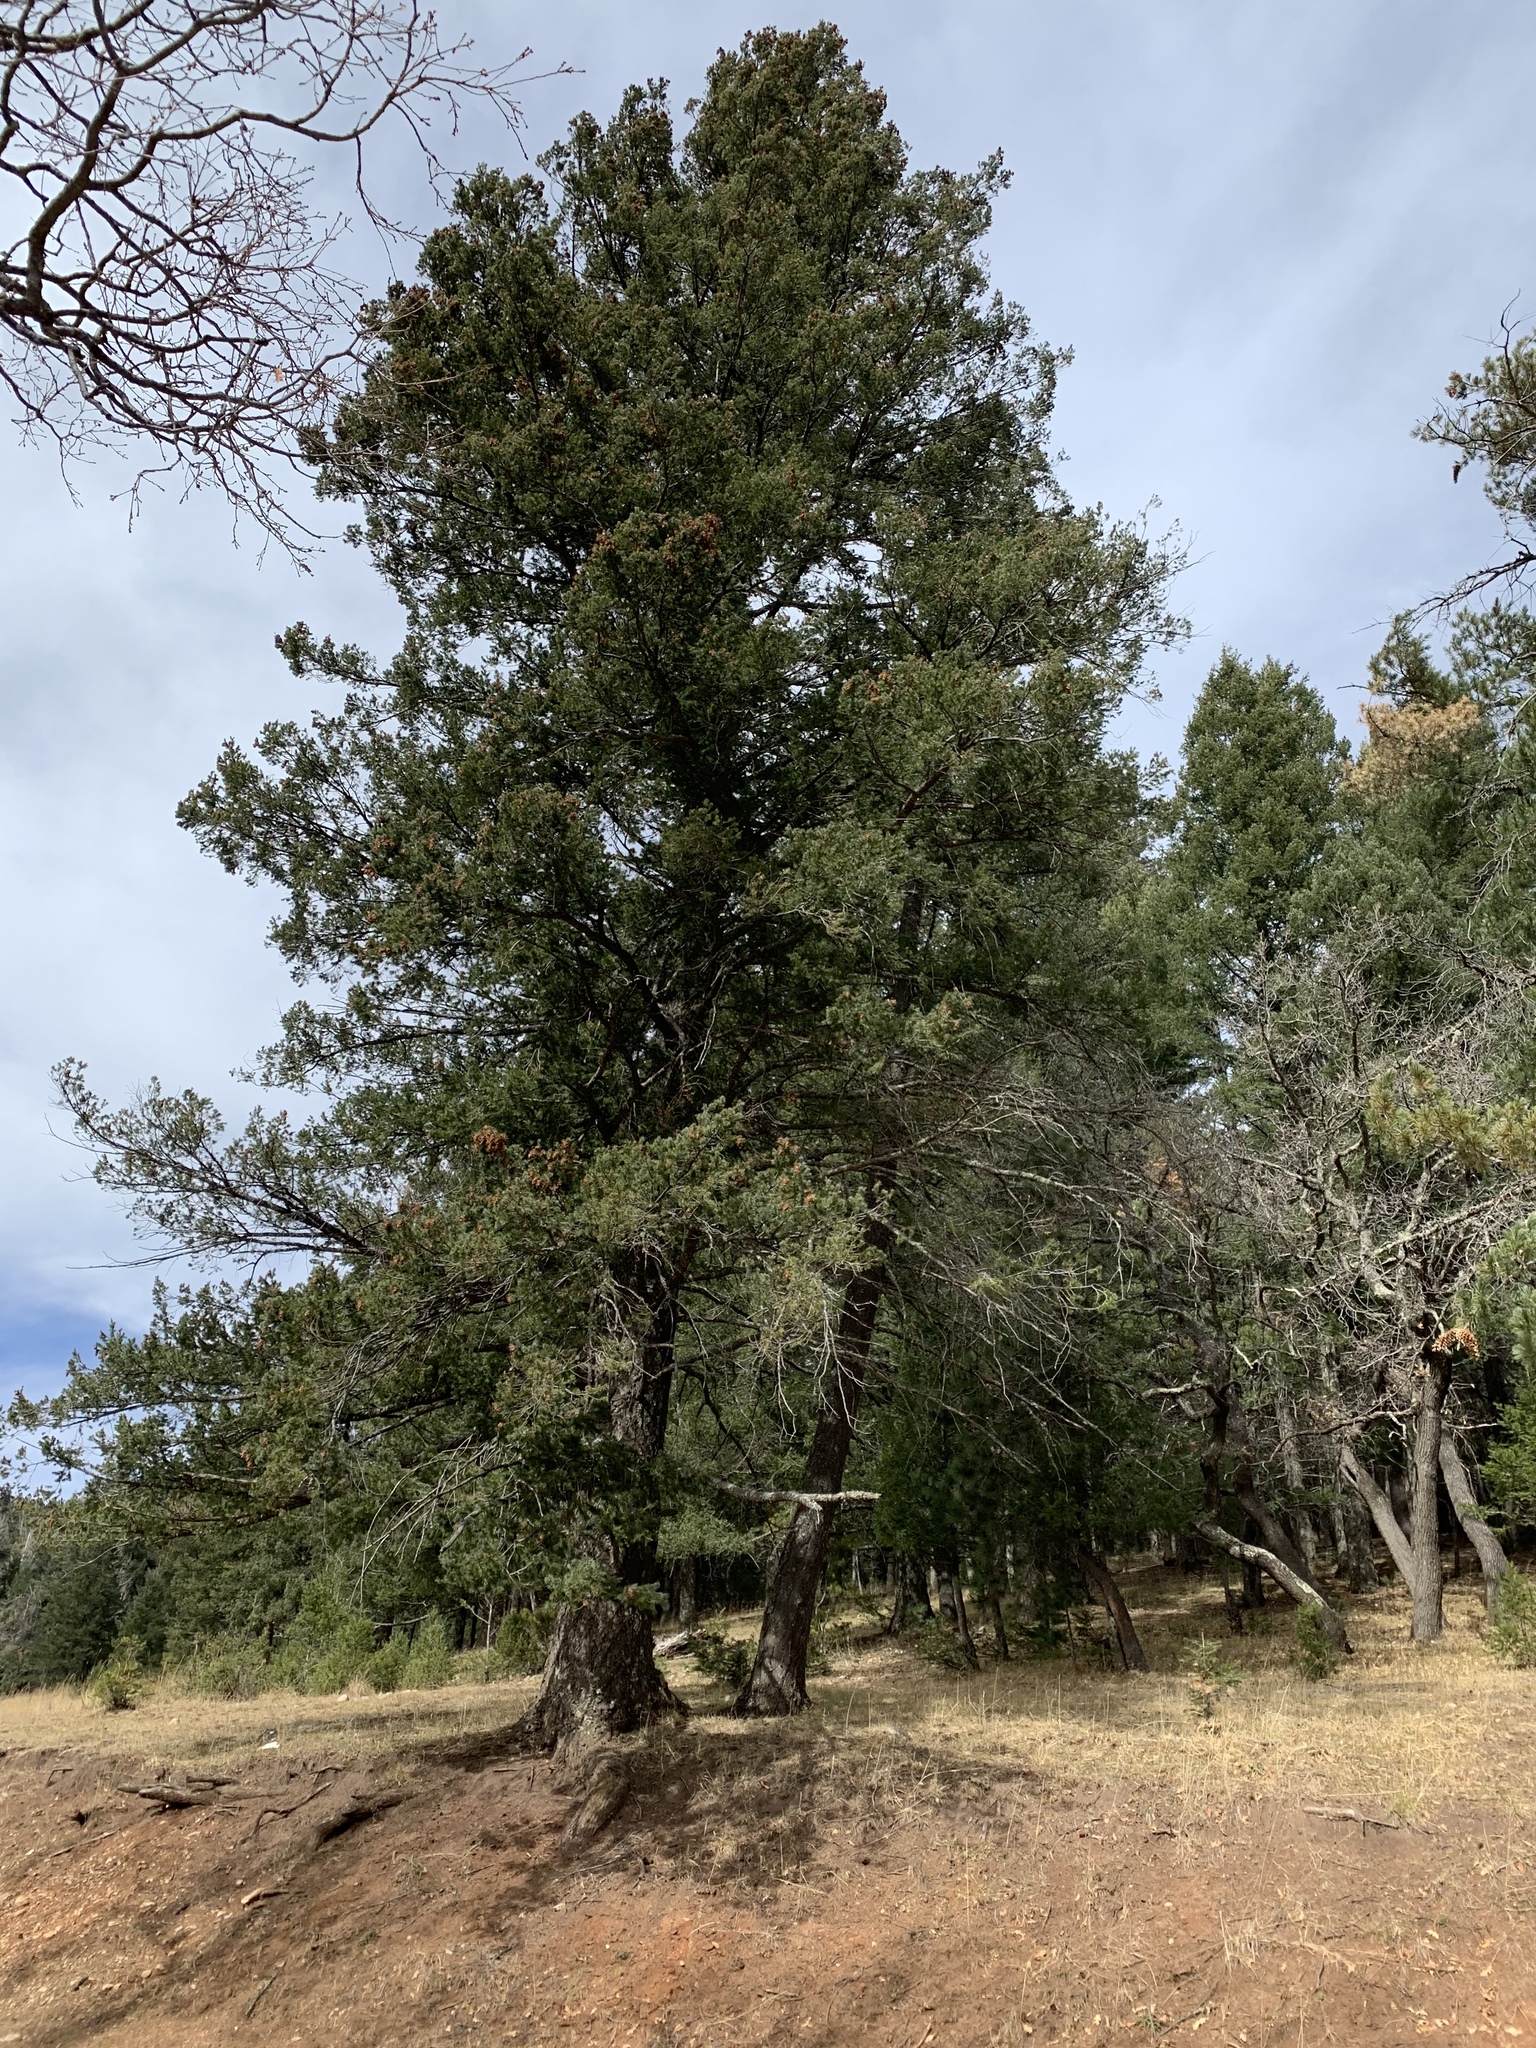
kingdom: Plantae
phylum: Tracheophyta
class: Pinopsida
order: Pinales
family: Pinaceae
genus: Pseudotsuga
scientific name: Pseudotsuga menziesii
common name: Douglas fir
